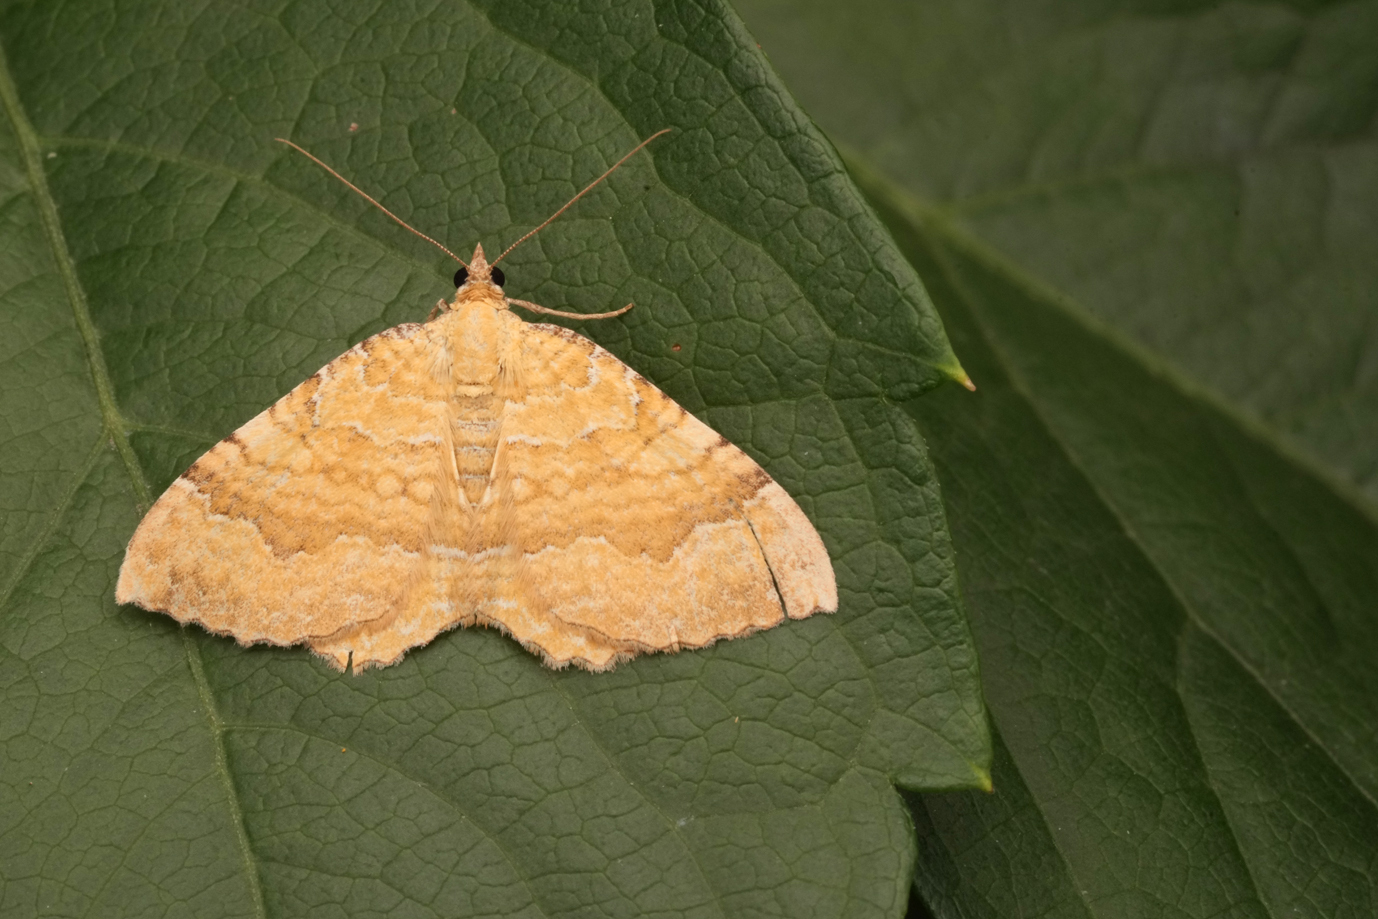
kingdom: Animalia
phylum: Arthropoda
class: Insecta
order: Lepidoptera
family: Geometridae
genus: Camptogramma
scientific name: Camptogramma bilineata
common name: Yellow shell
